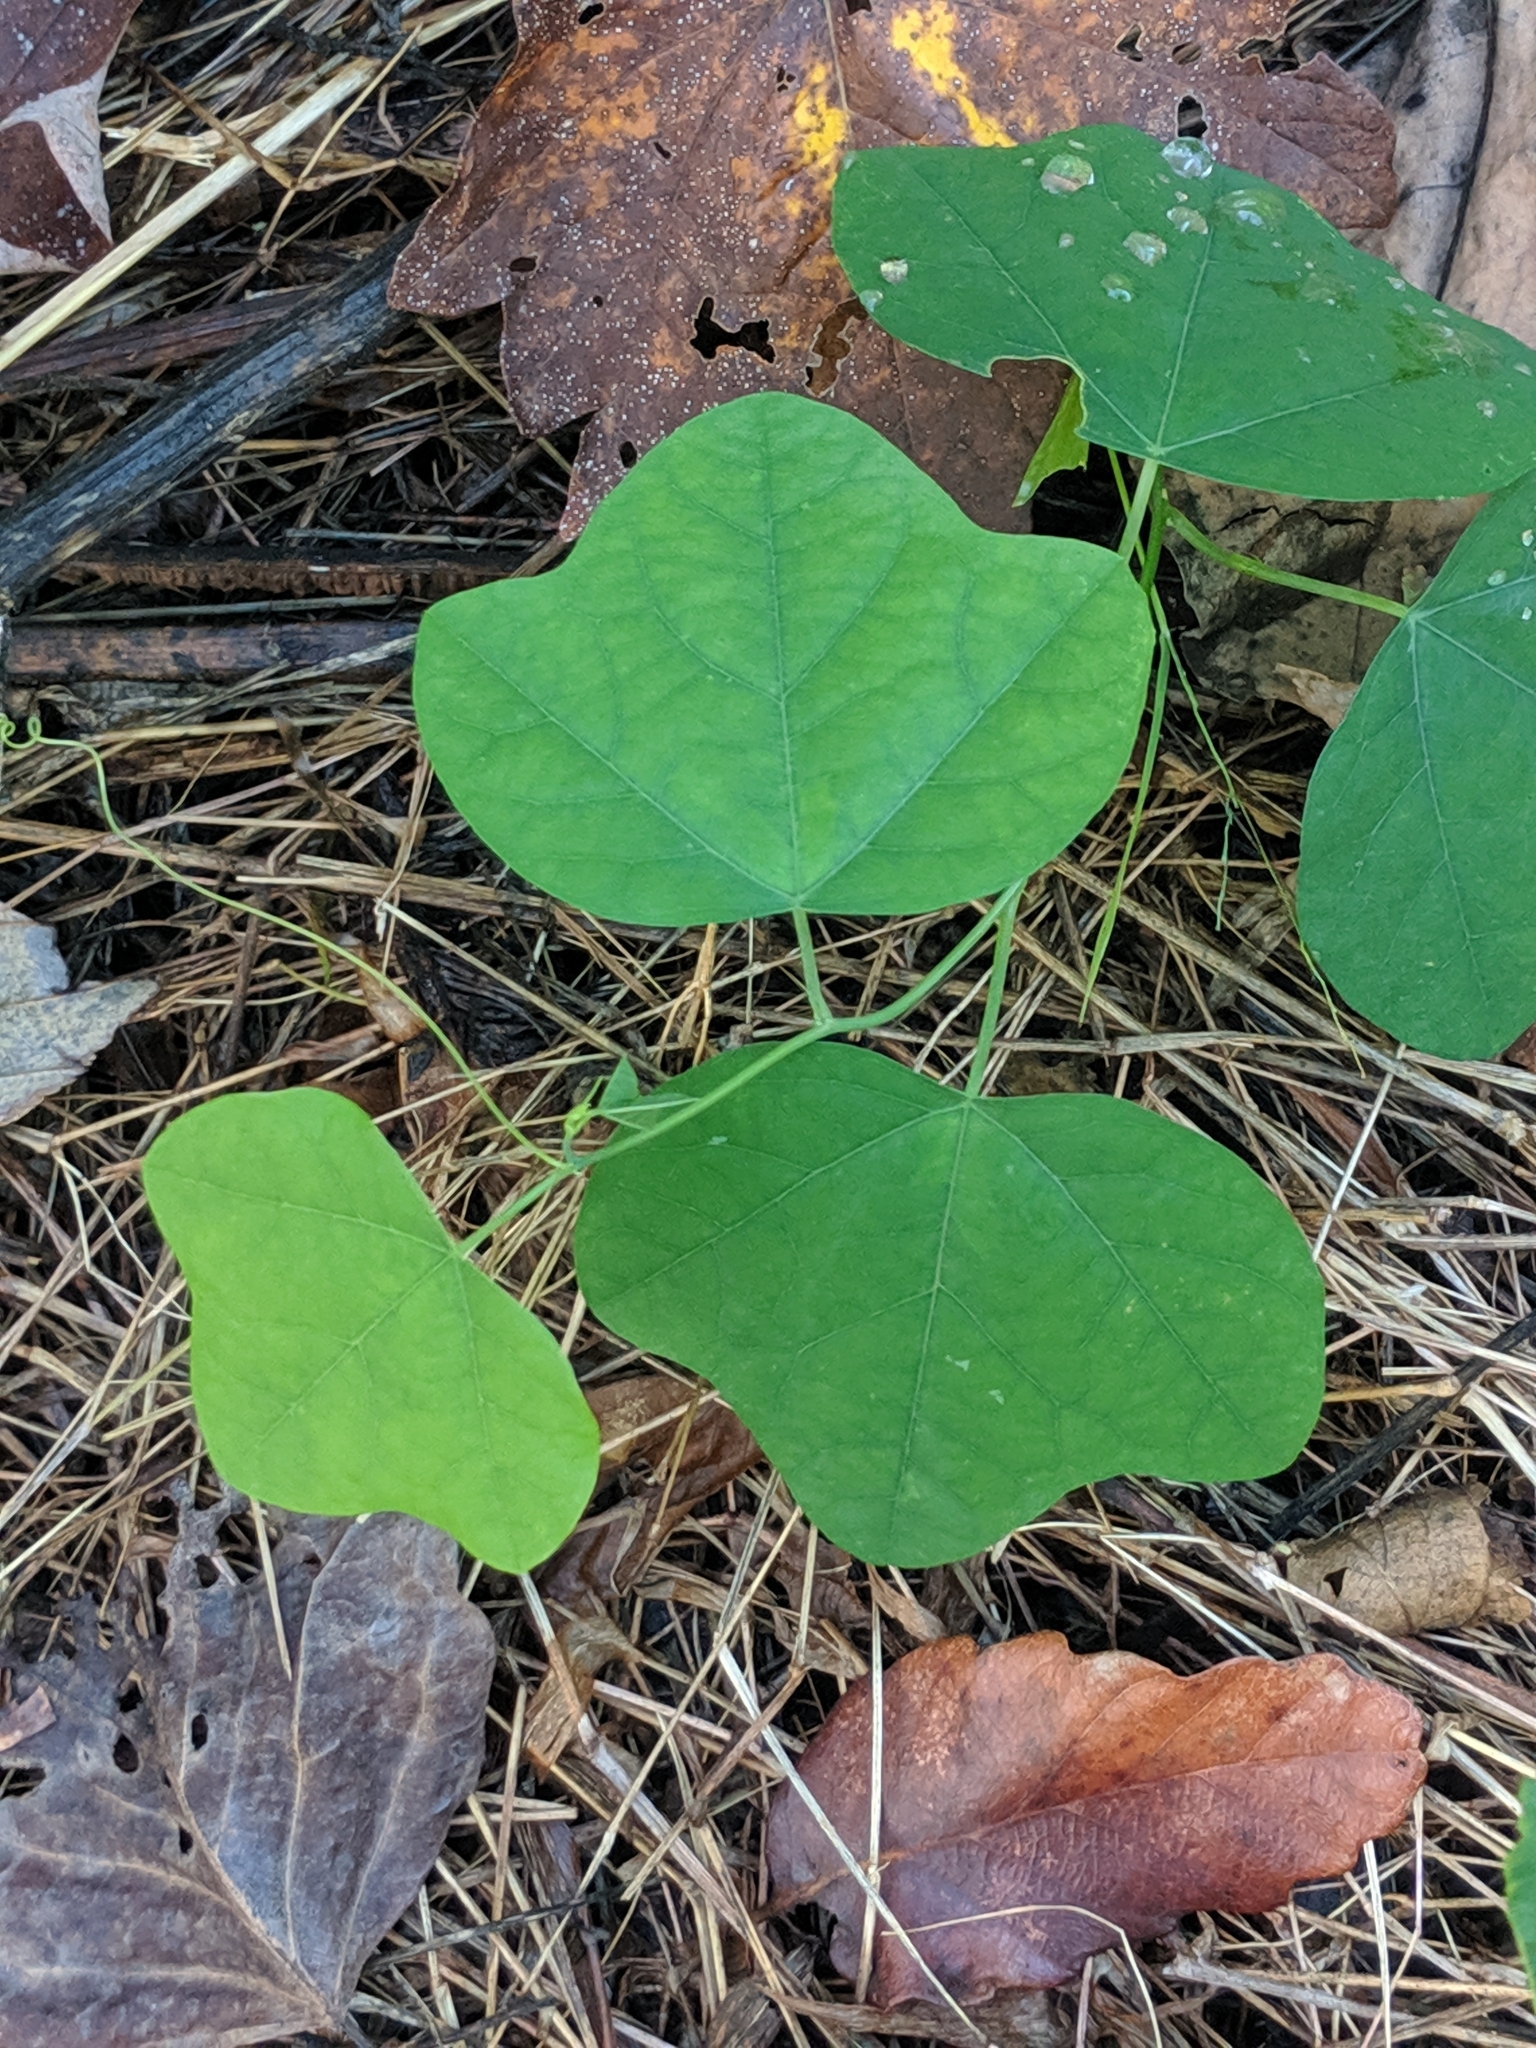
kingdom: Plantae
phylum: Tracheophyta
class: Magnoliopsida
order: Malpighiales
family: Passifloraceae
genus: Passiflora
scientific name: Passiflora lutea
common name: Yellow passionflower
